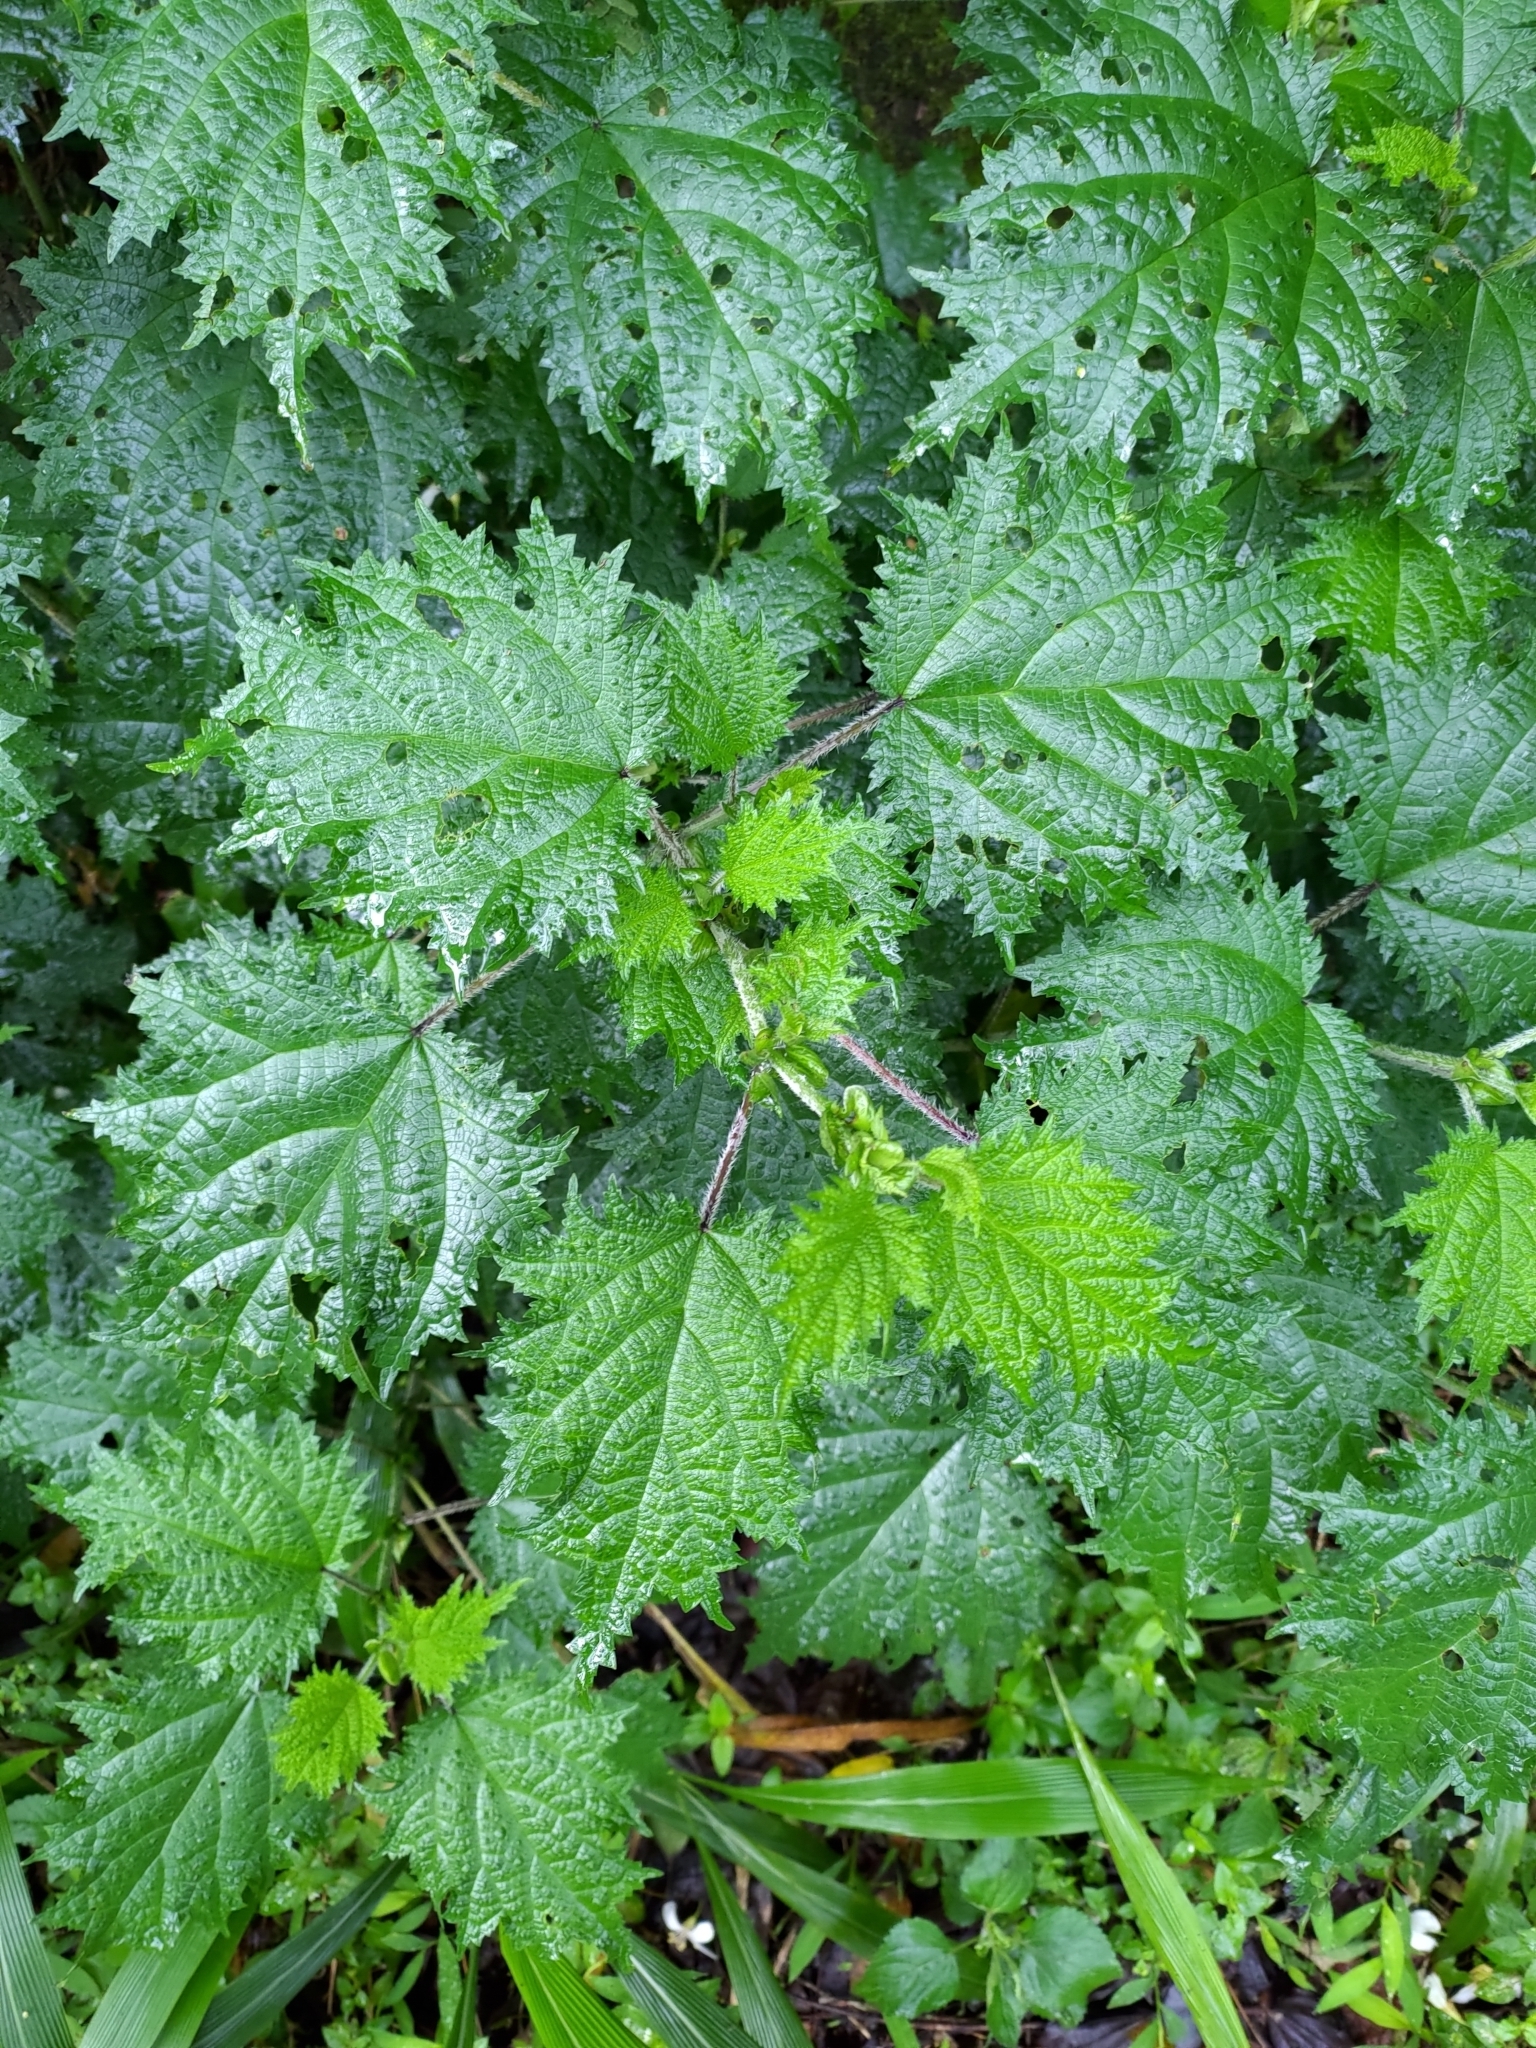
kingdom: Plantae
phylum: Tracheophyta
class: Magnoliopsida
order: Rosales
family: Urticaceae
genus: Urtica
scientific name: Urtica thunbergiana
